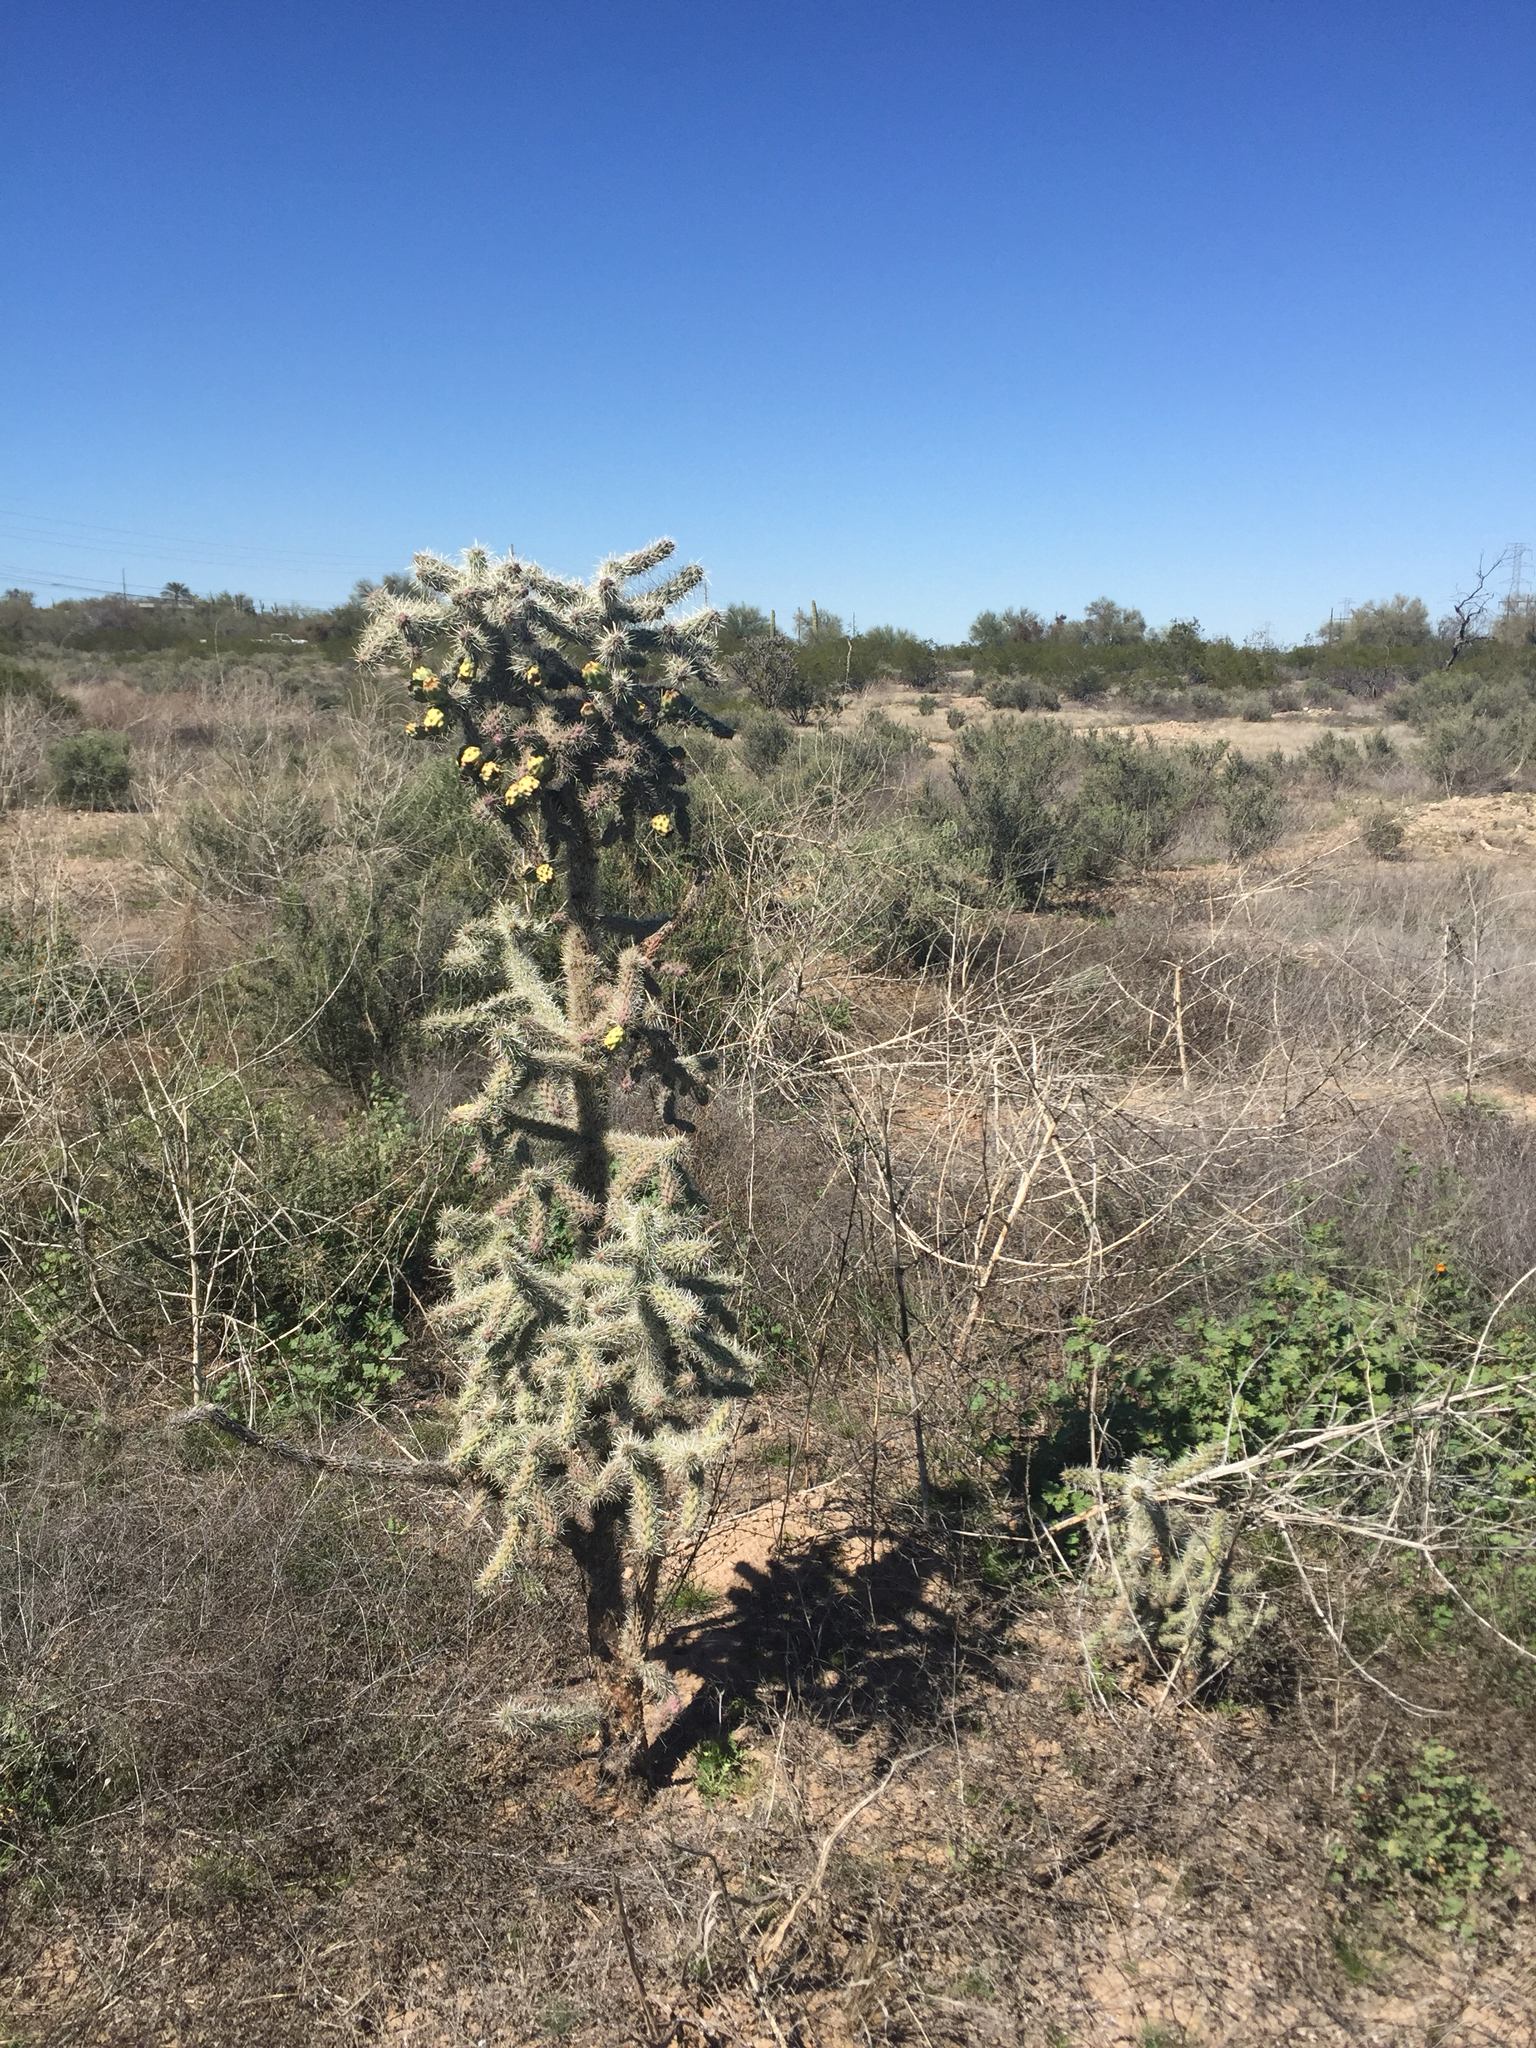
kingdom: Plantae
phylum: Tracheophyta
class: Magnoliopsida
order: Caryophyllales
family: Cactaceae
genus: Cylindropuntia
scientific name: Cylindropuntia imbricata
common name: Candelabrum cactus
